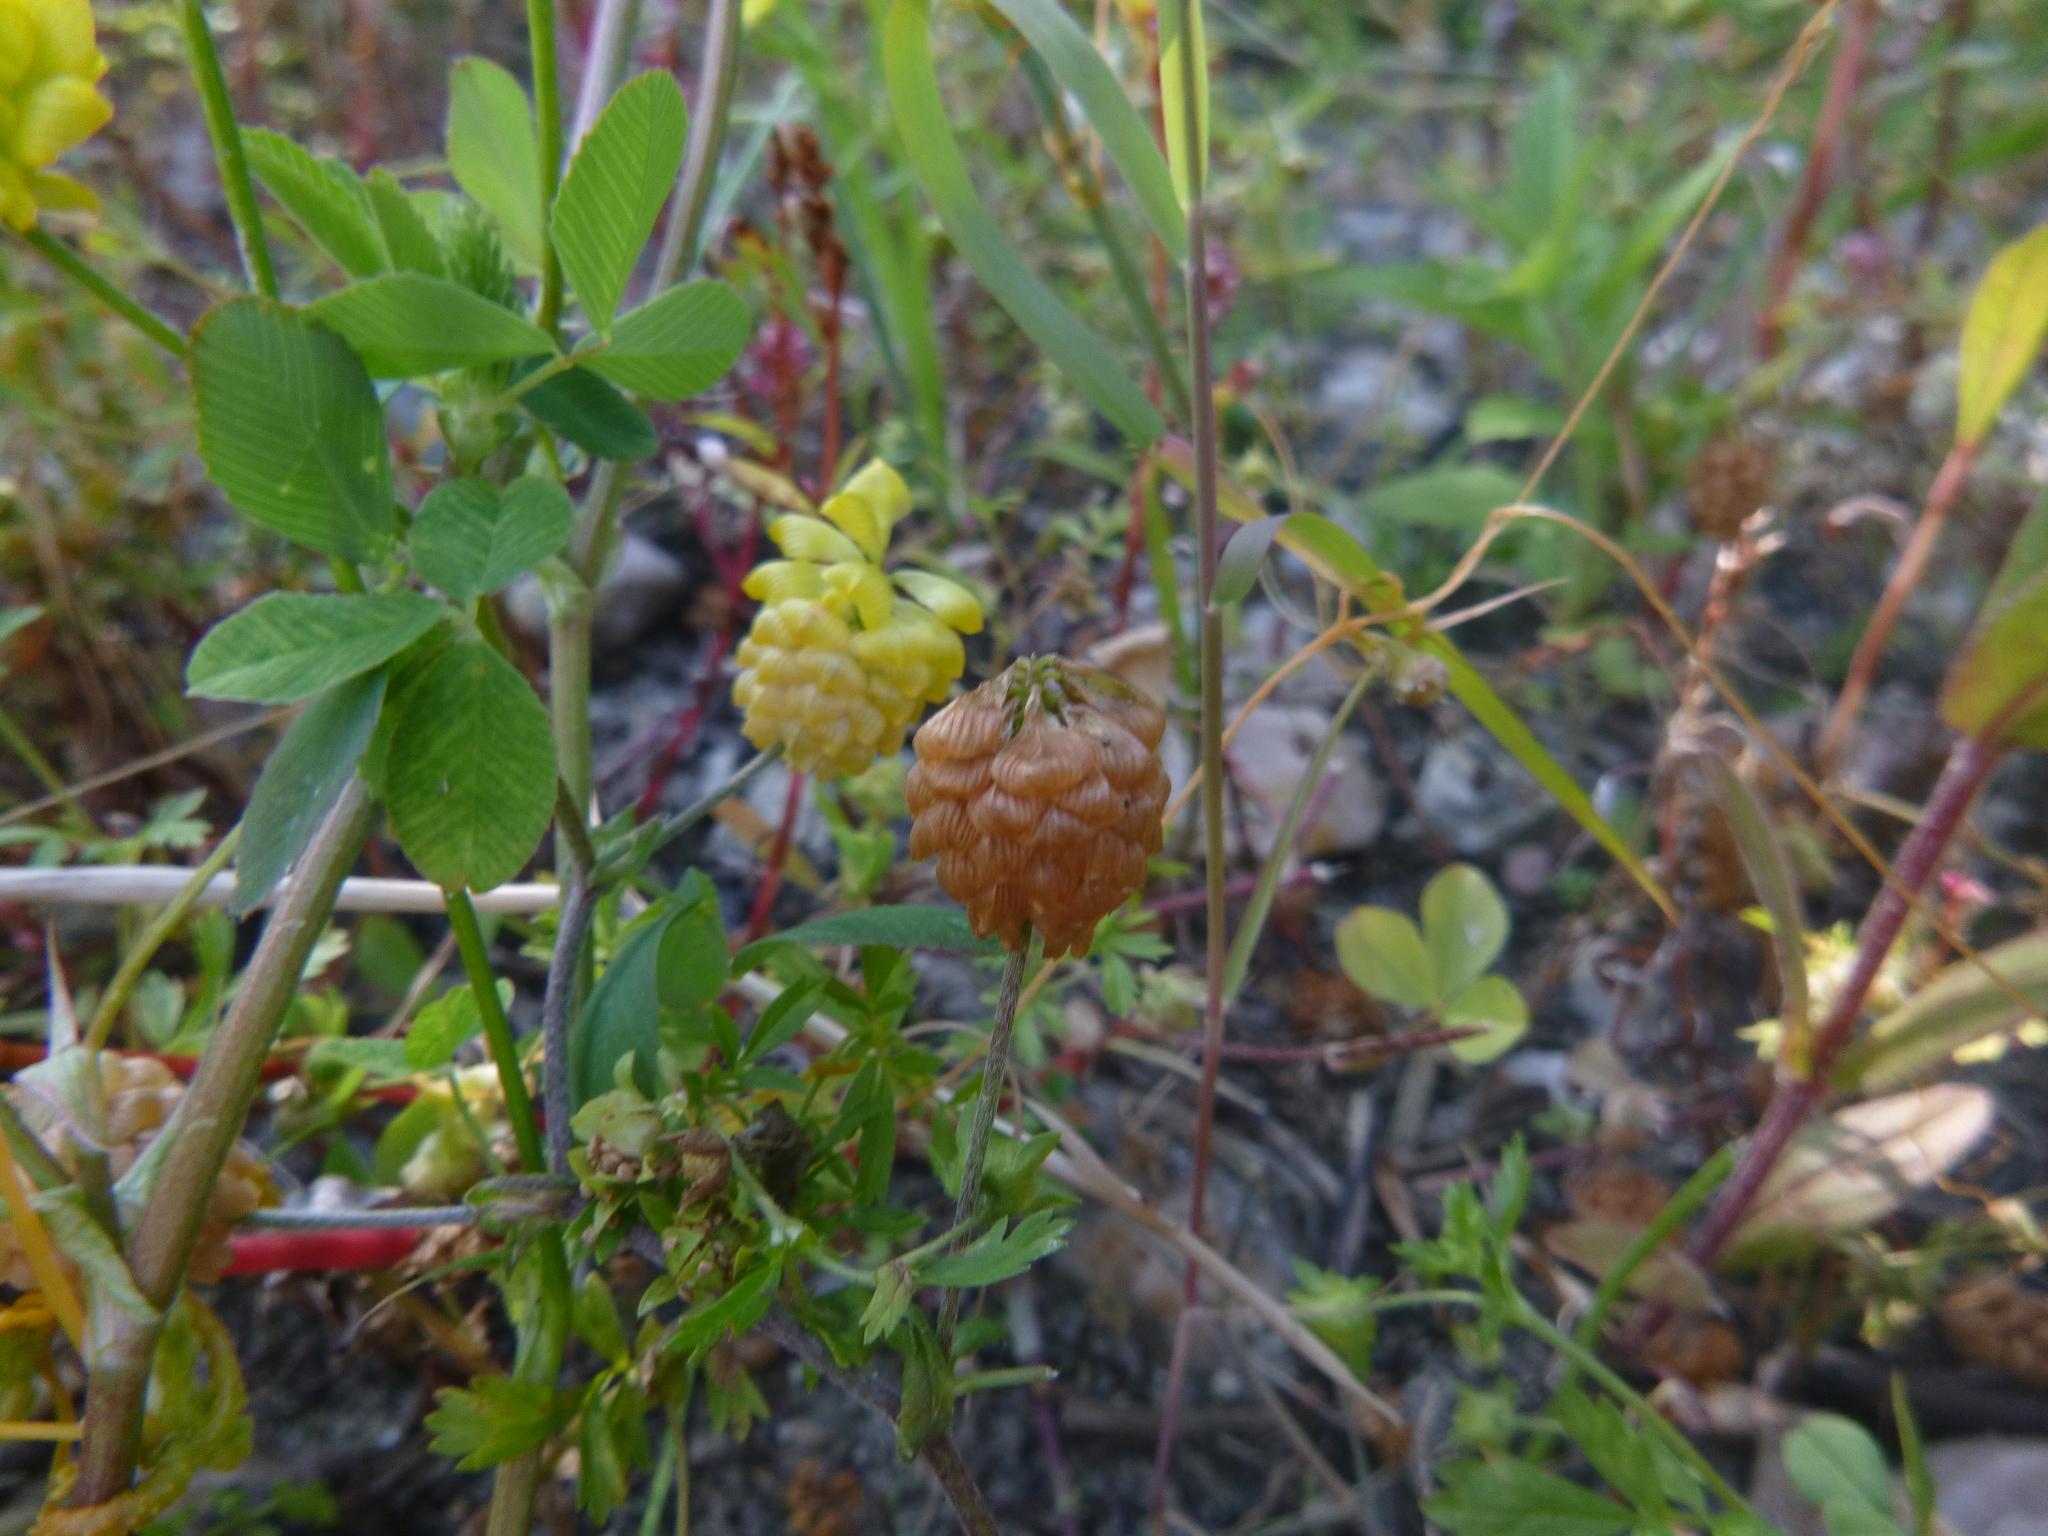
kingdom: Plantae
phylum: Tracheophyta
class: Magnoliopsida
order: Fabales
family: Fabaceae
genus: Trifolium
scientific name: Trifolium campestre
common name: Field clover
